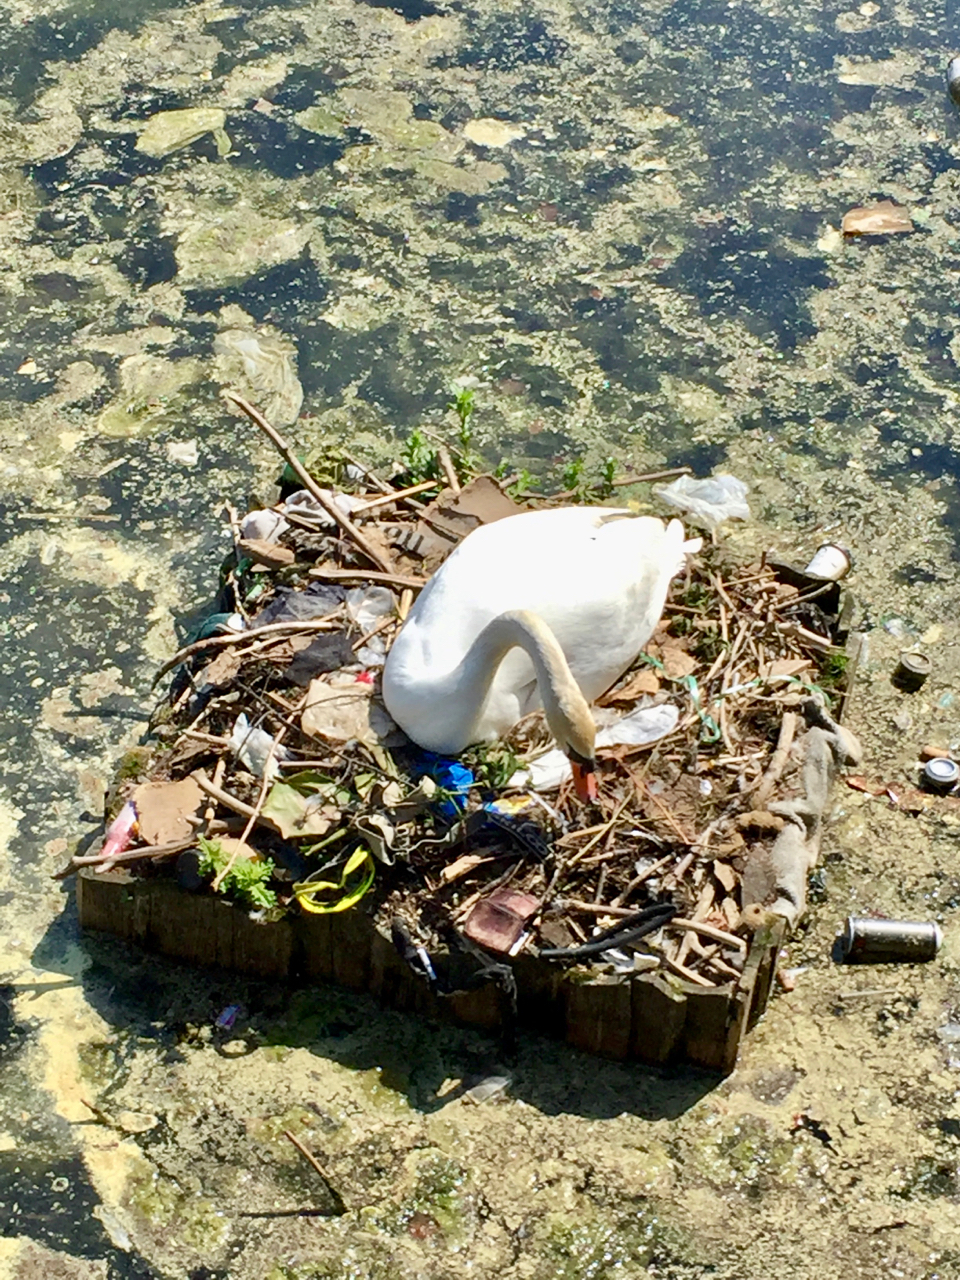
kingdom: Animalia
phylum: Chordata
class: Aves
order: Anseriformes
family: Anatidae
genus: Cygnus
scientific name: Cygnus olor
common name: Mute swan
